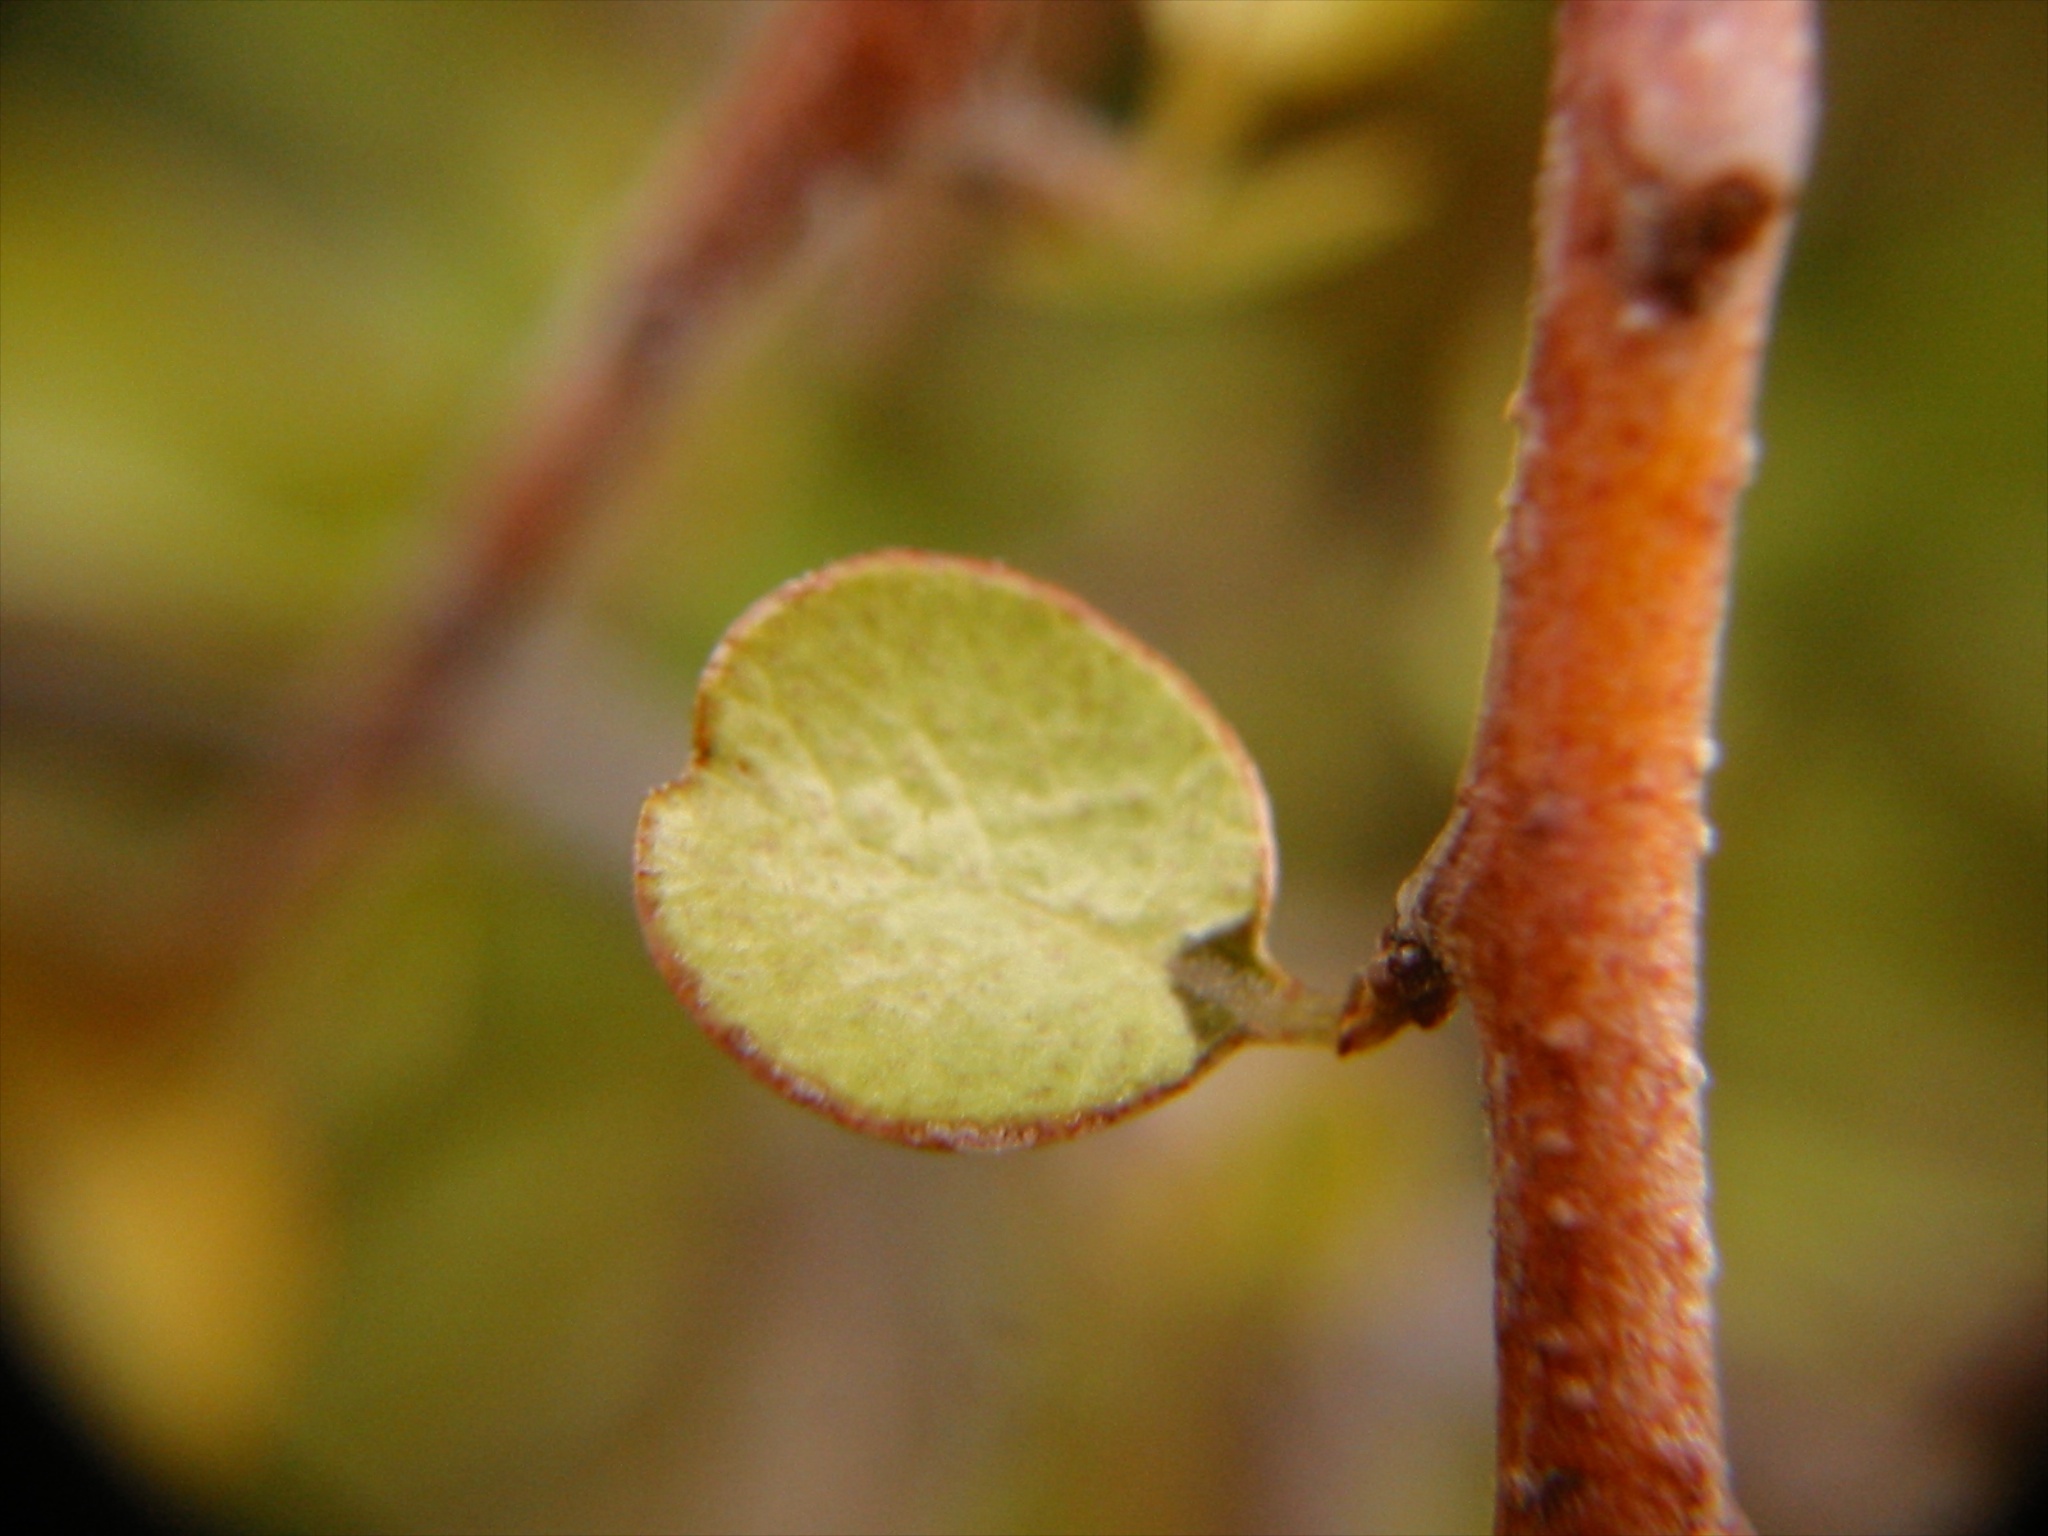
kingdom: Plantae
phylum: Tracheophyta
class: Magnoliopsida
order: Ericales
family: Primulaceae
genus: Myrsine
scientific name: Myrsine divaricata
